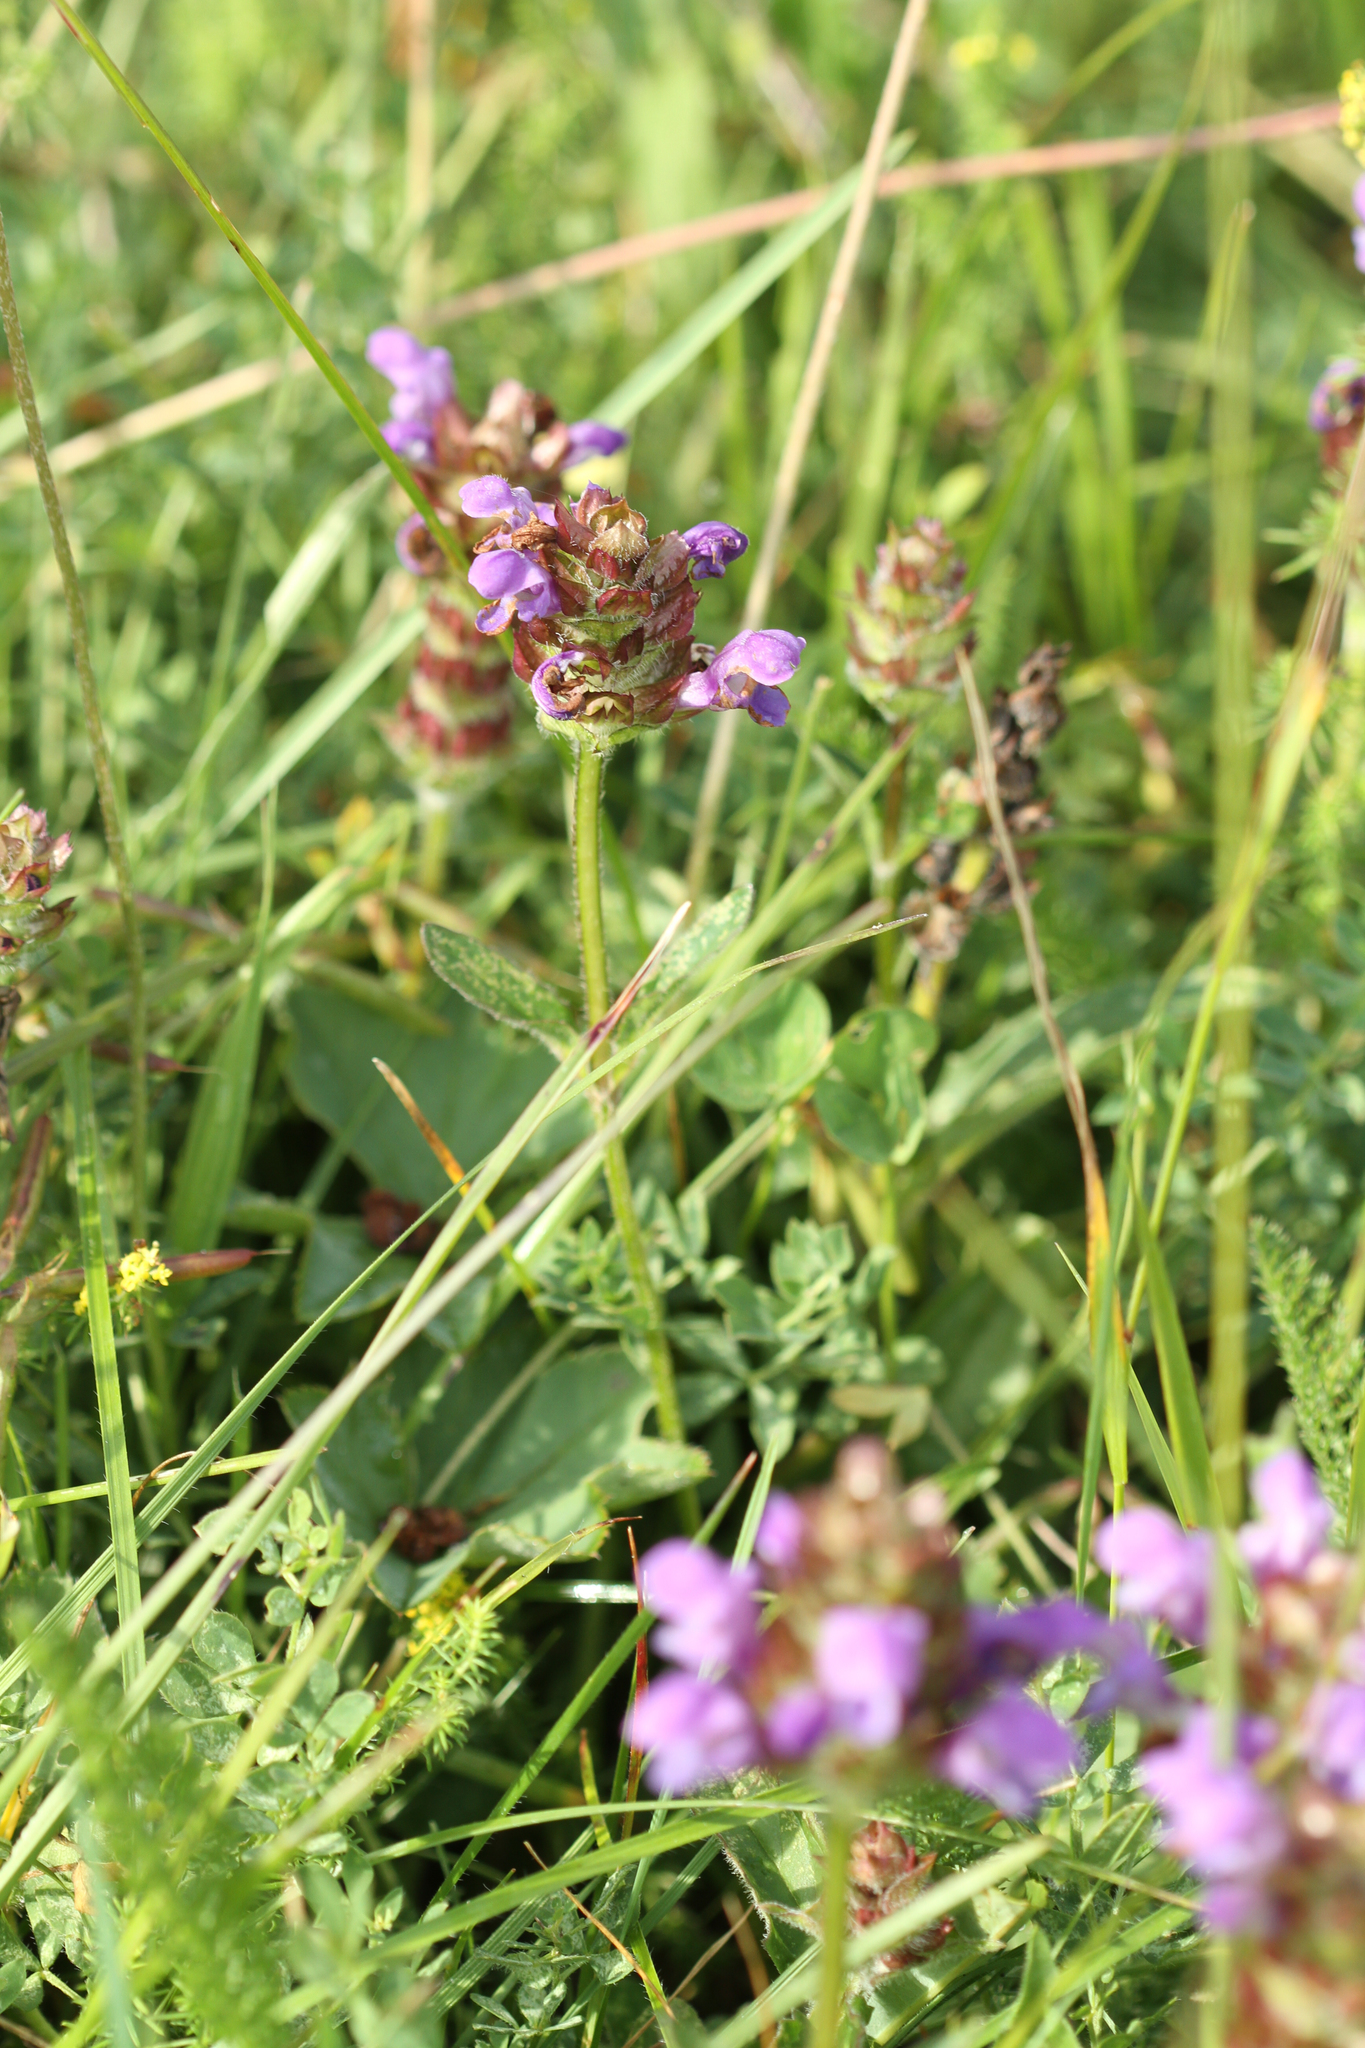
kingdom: Plantae
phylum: Tracheophyta
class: Magnoliopsida
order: Lamiales
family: Lamiaceae
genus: Prunella
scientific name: Prunella vulgaris
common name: Heal-all
